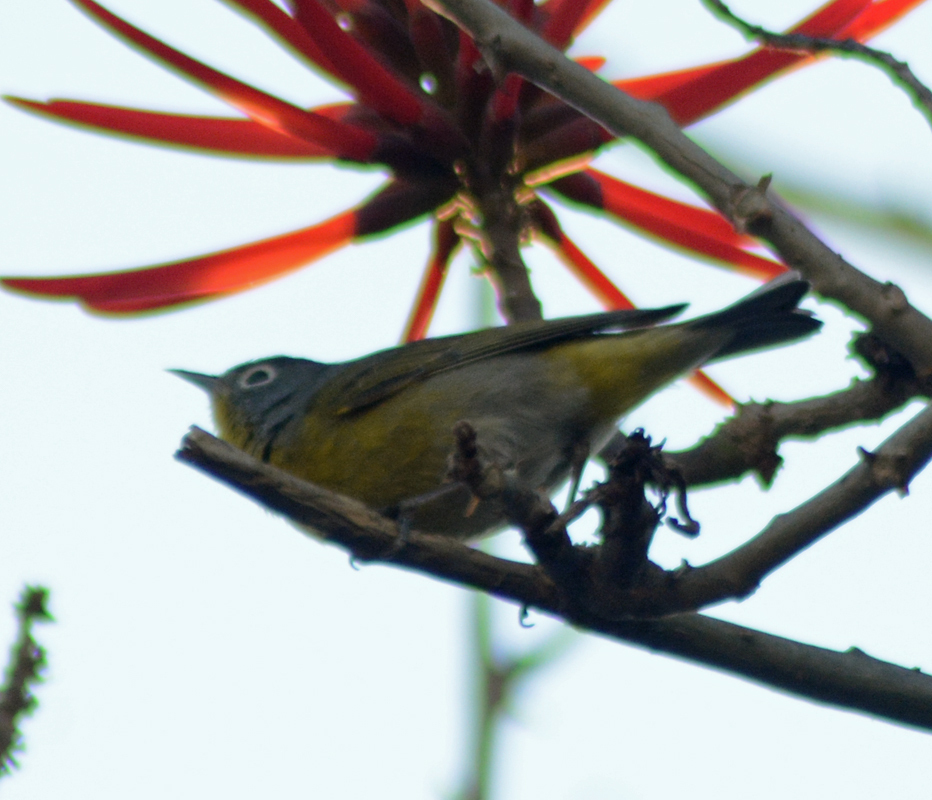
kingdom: Animalia
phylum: Chordata
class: Aves
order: Passeriformes
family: Parulidae
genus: Leiothlypis
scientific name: Leiothlypis ruficapilla
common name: Nashville warbler
